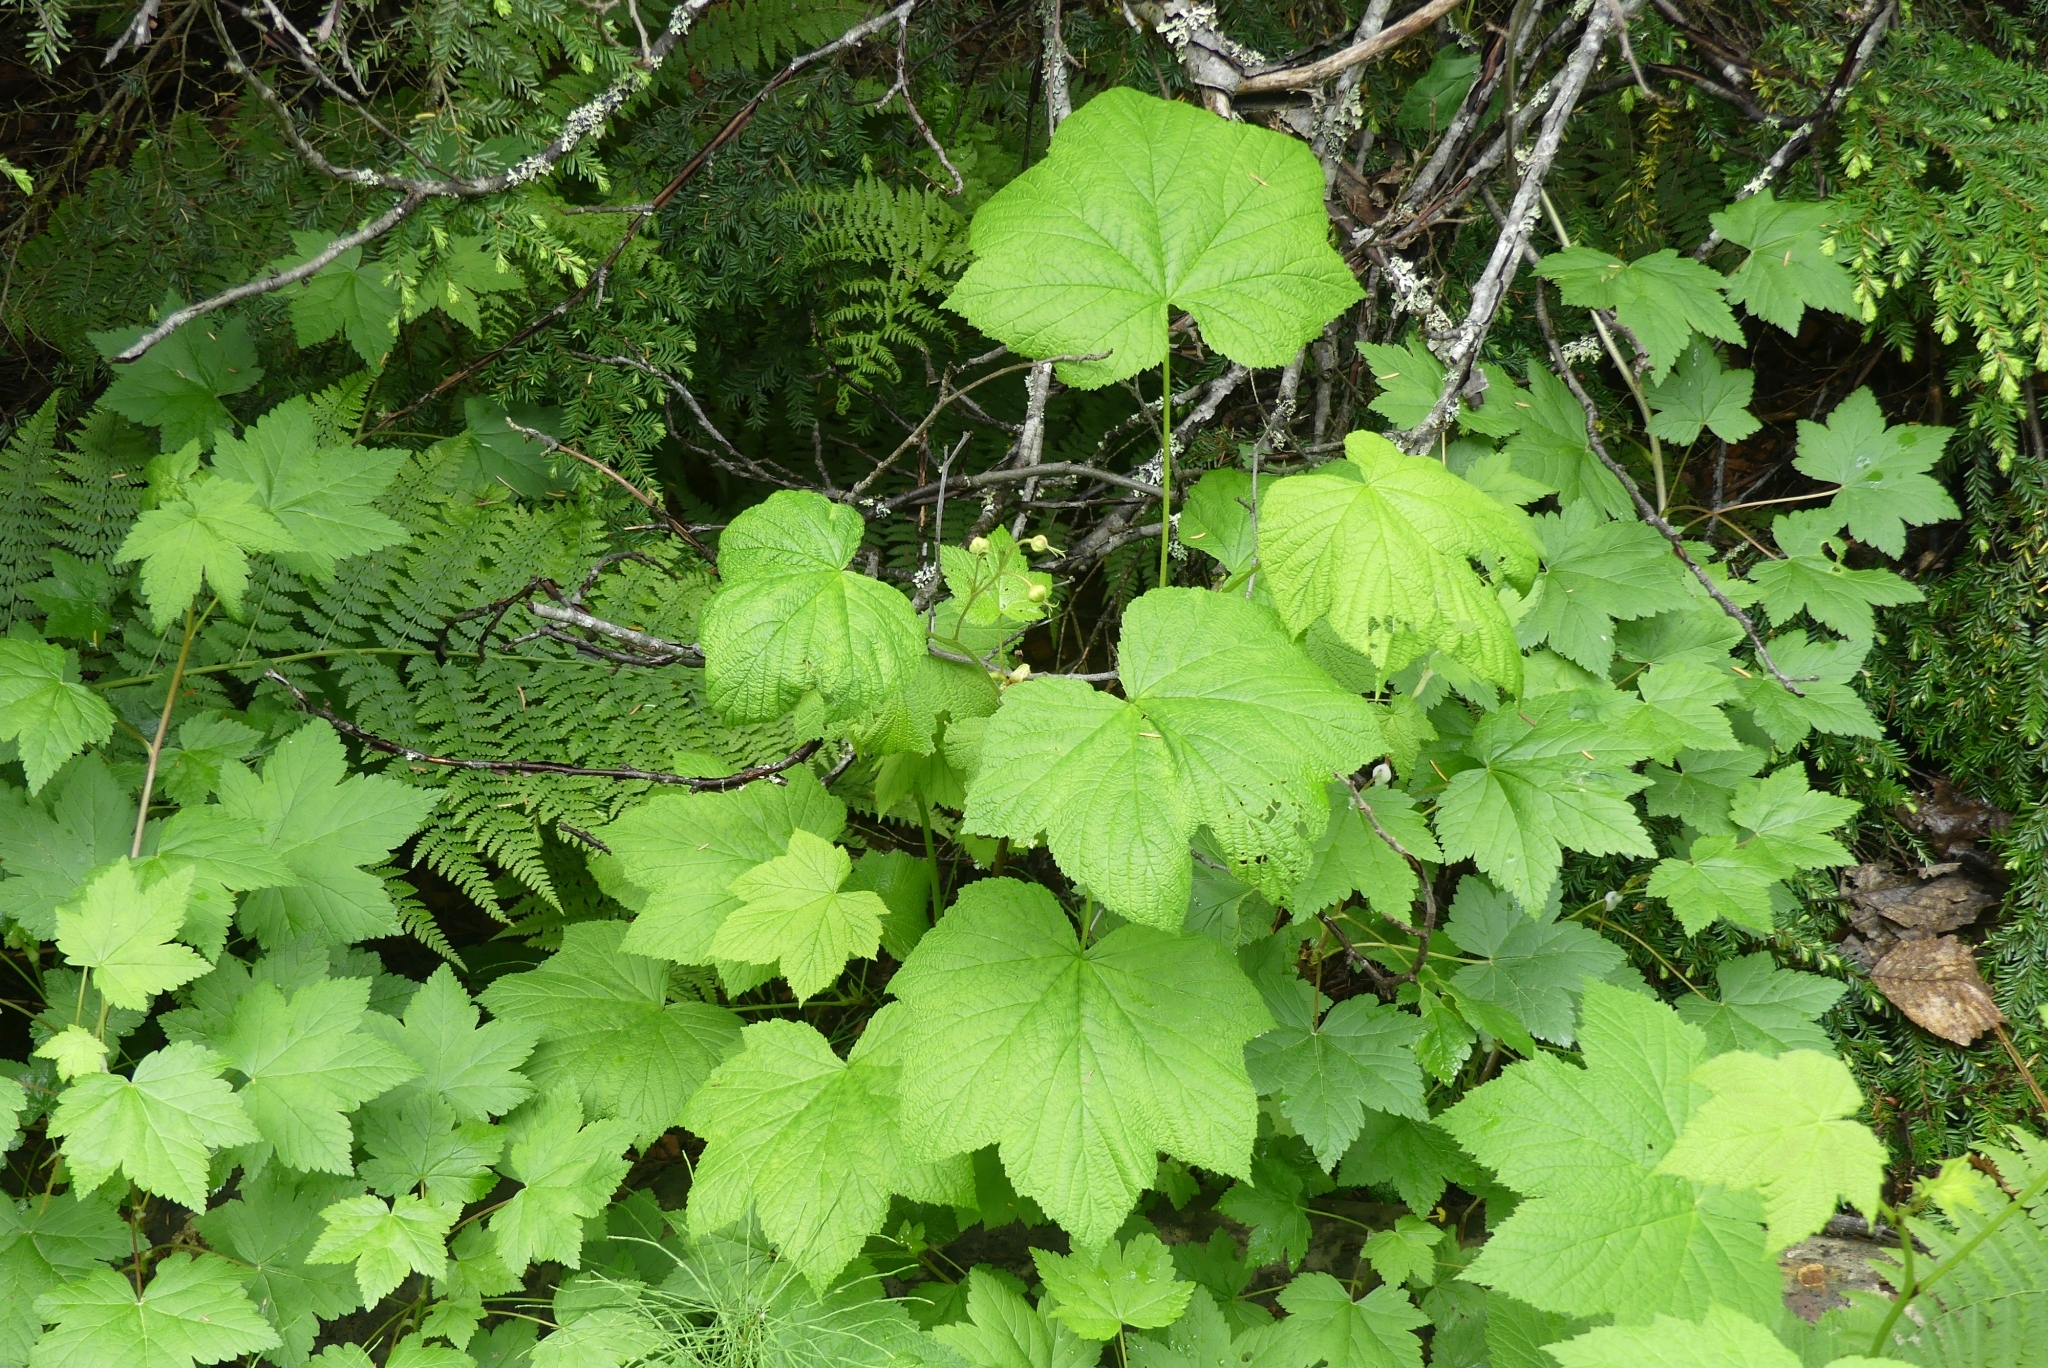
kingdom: Plantae
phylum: Tracheophyta
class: Magnoliopsida
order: Rosales
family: Rosaceae
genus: Rubus
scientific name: Rubus parviflorus
